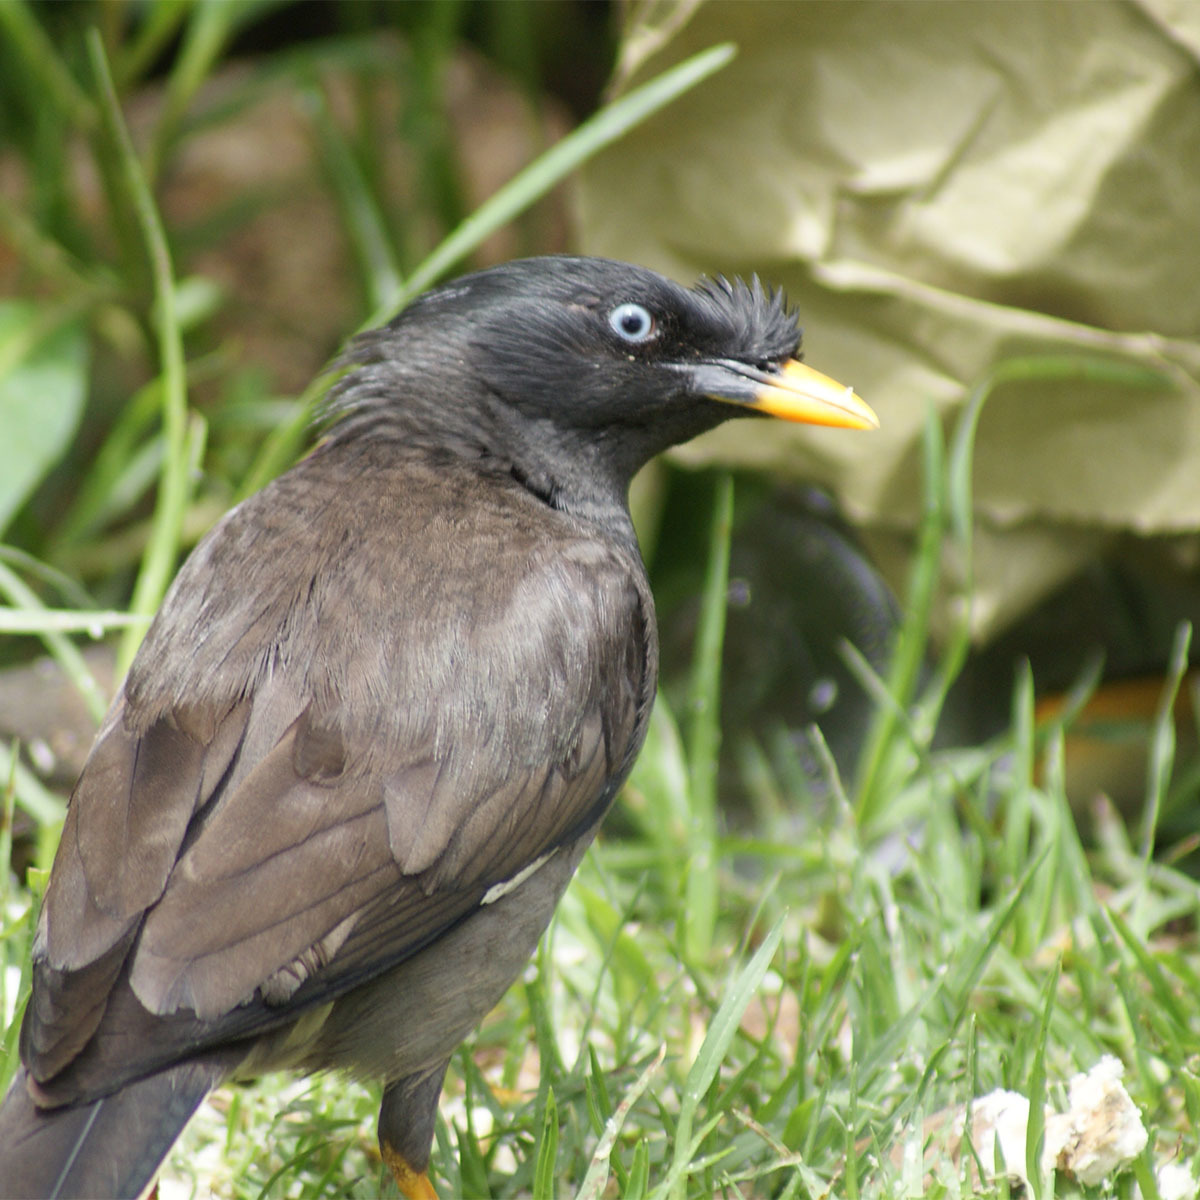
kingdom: Animalia
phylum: Chordata
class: Aves
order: Passeriformes
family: Sturnidae
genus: Acridotheres
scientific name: Acridotheres fuscus
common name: Jungle myna
